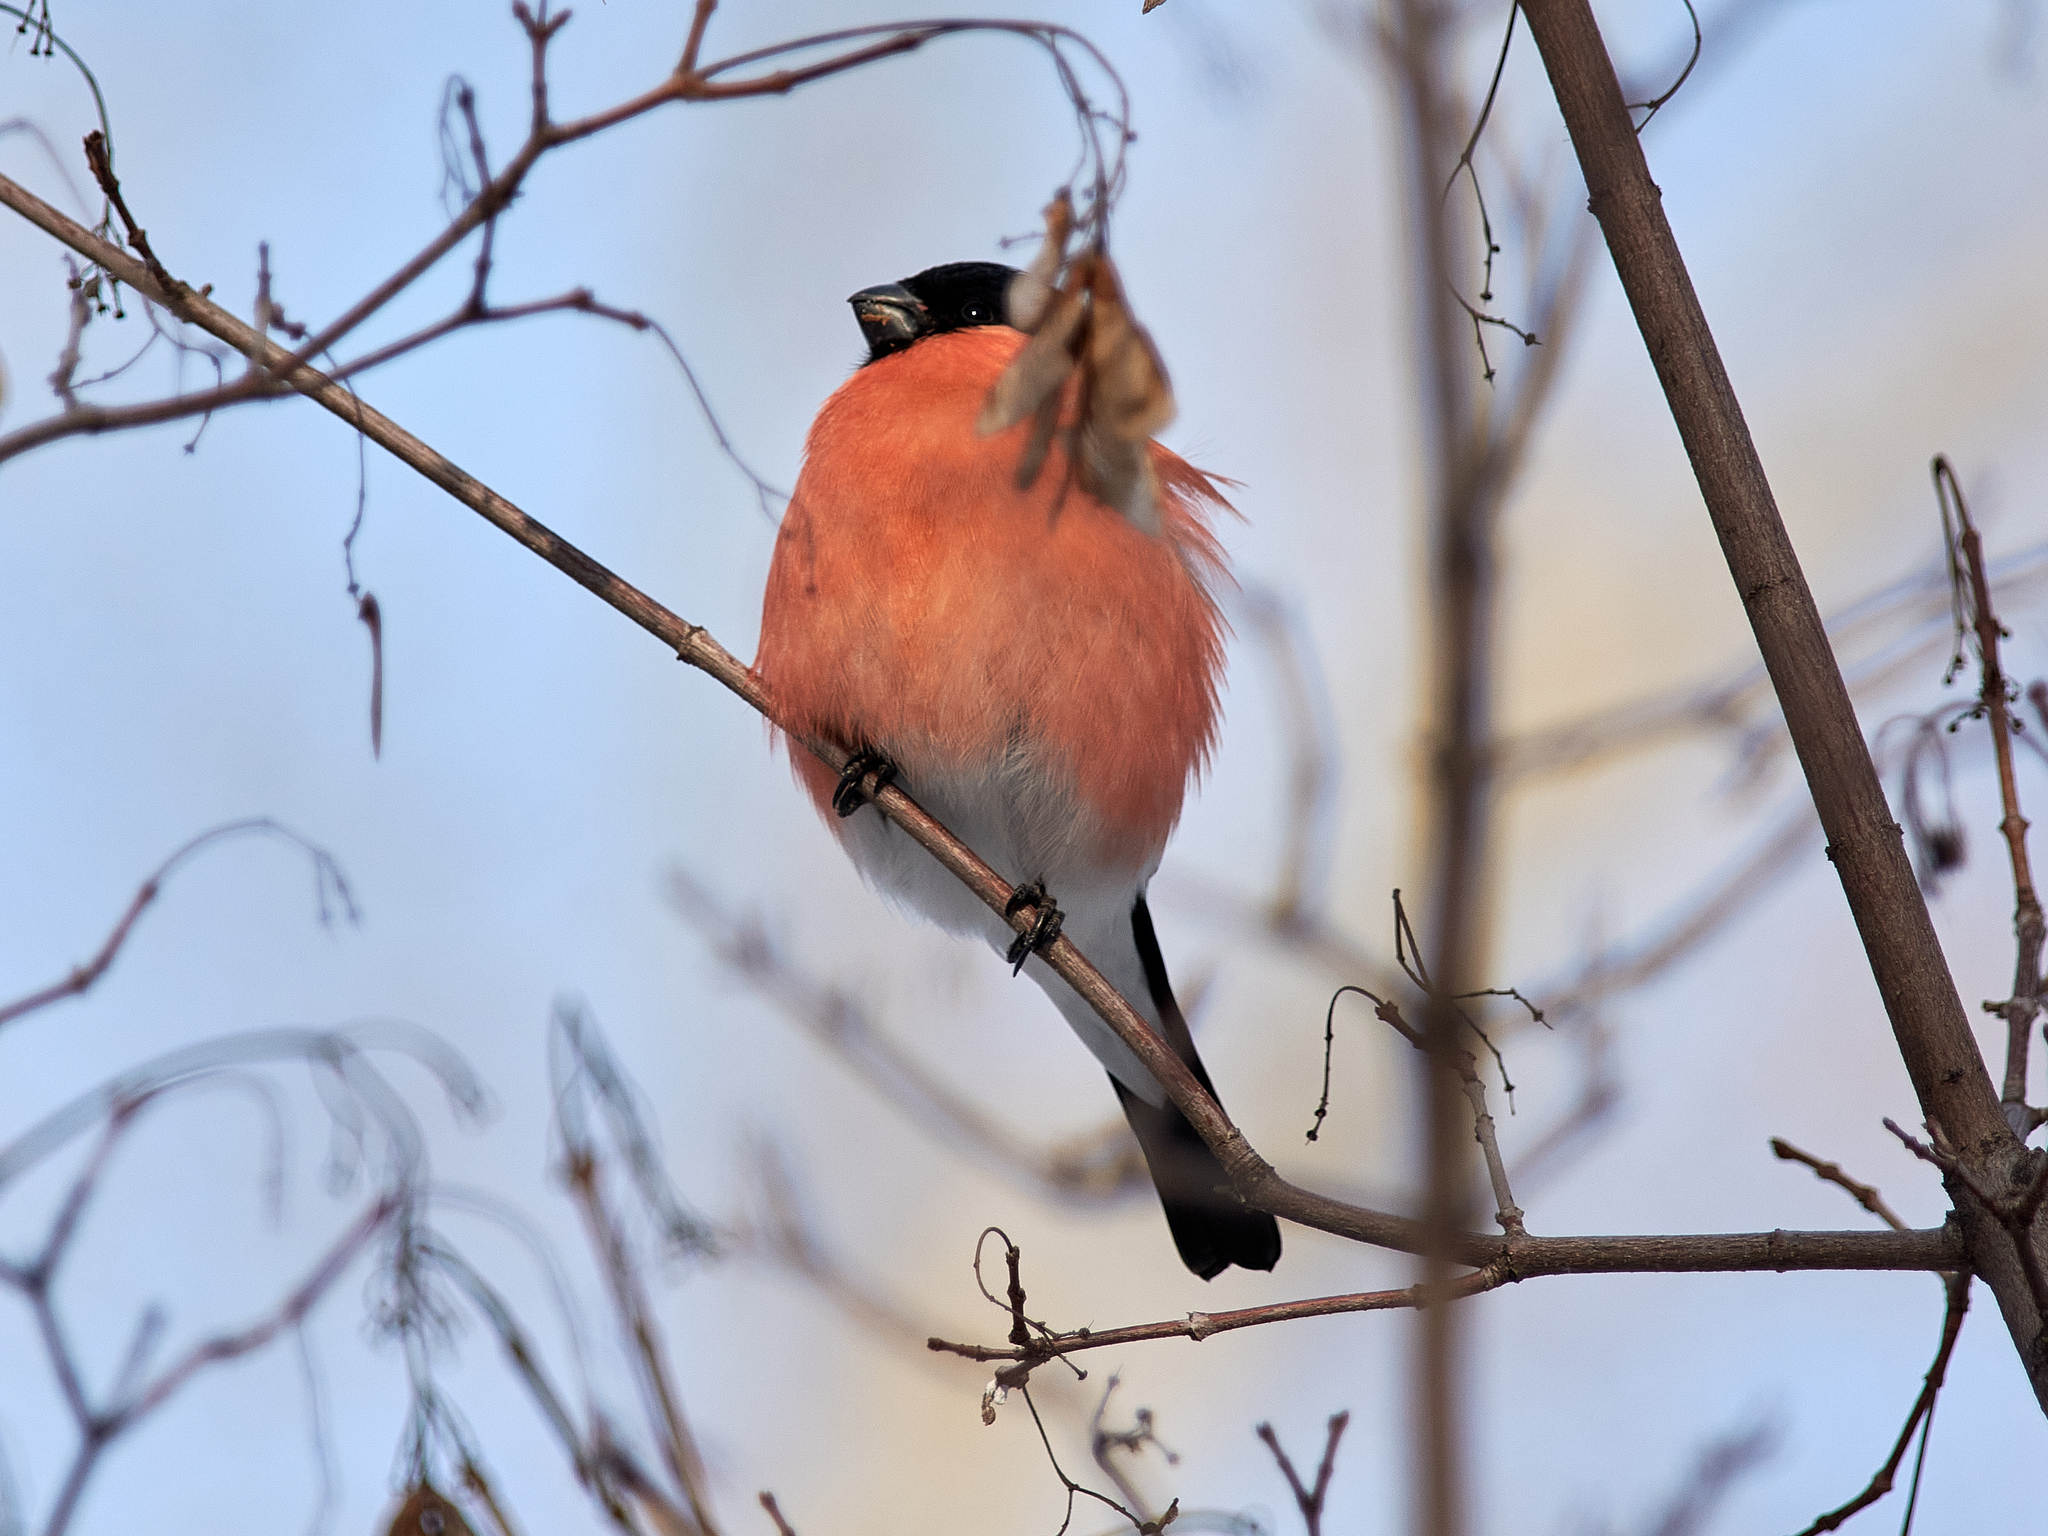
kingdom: Animalia
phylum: Chordata
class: Aves
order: Passeriformes
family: Fringillidae
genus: Pyrrhula
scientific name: Pyrrhula pyrrhula
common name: Eurasian bullfinch
